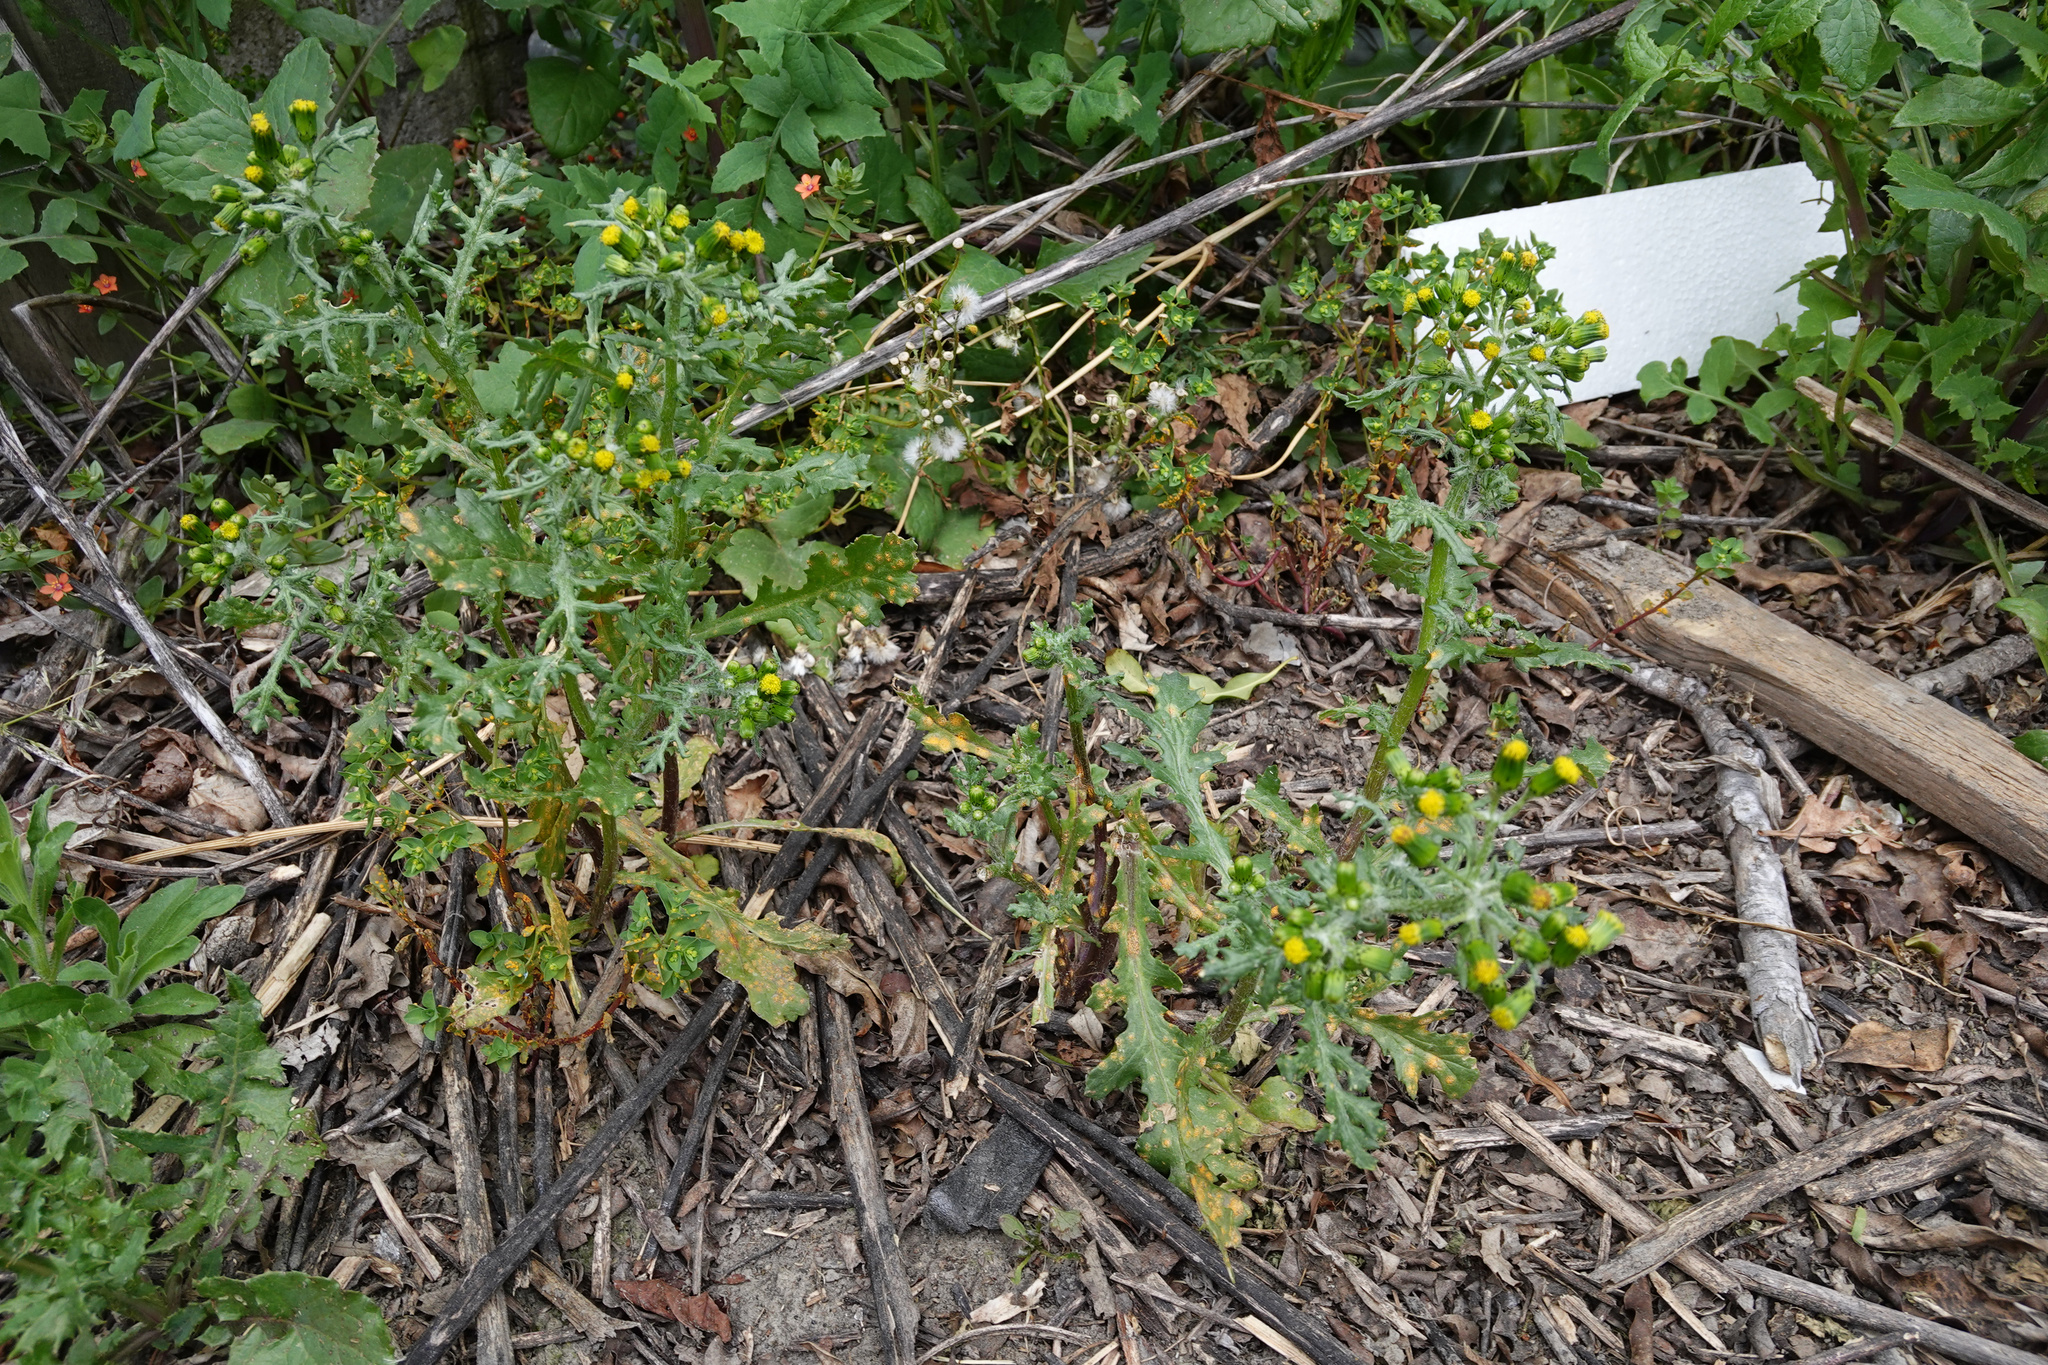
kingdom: Plantae
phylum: Tracheophyta
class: Magnoliopsida
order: Asterales
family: Asteraceae
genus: Senecio
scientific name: Senecio vulgaris
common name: Old-man-in-the-spring
